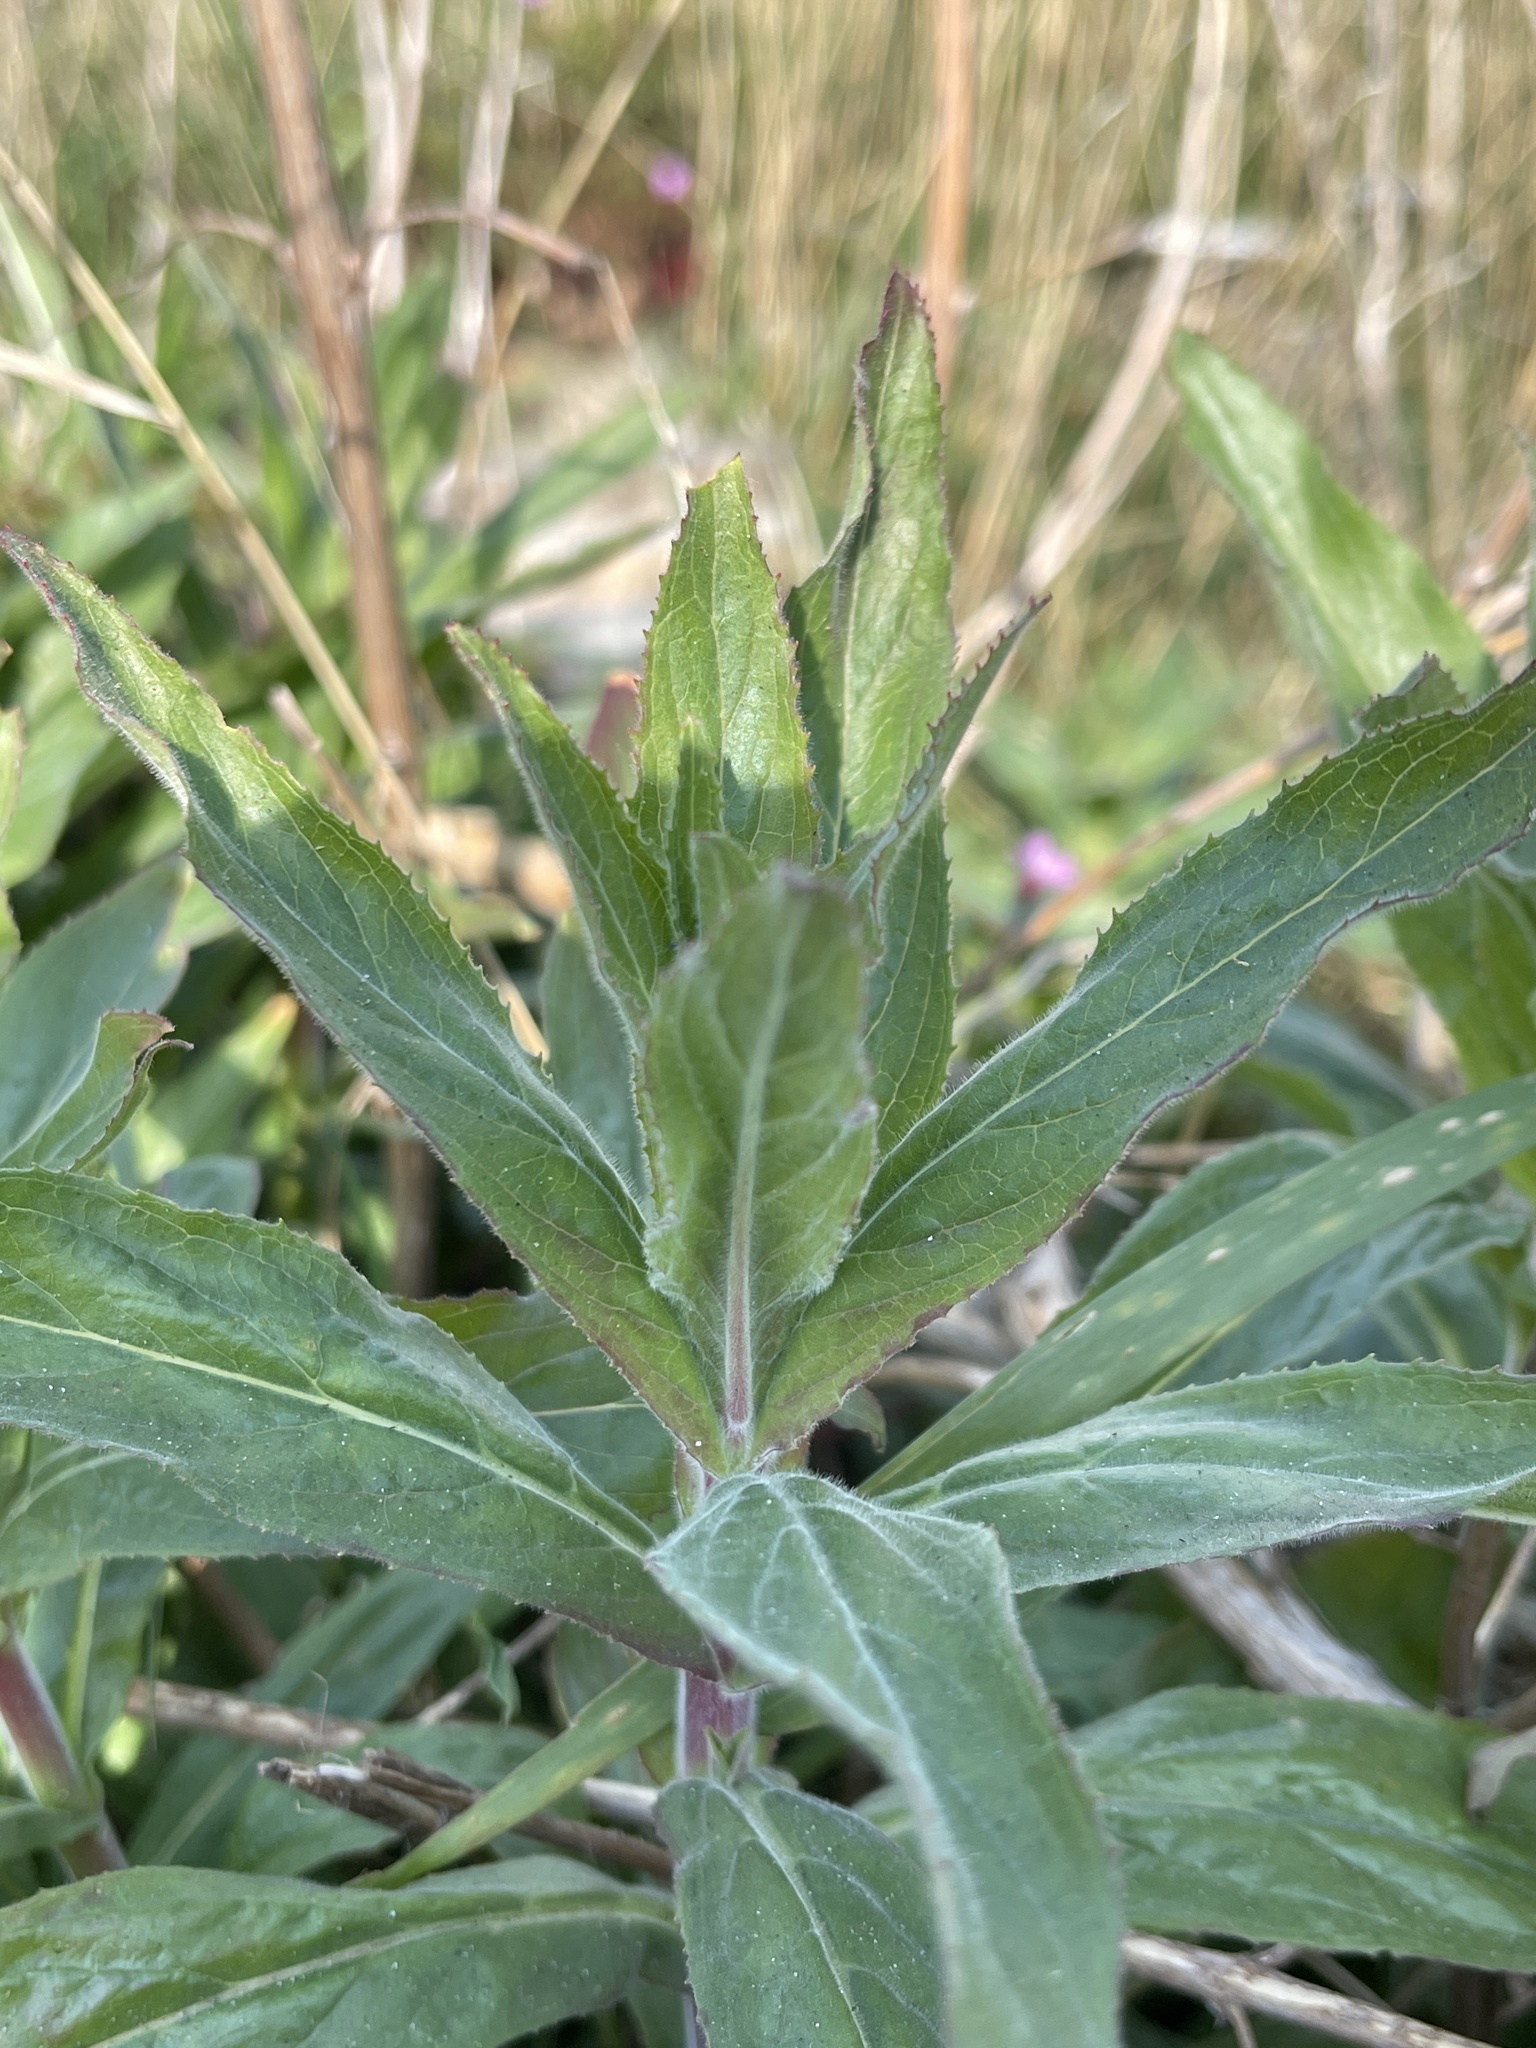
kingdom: Plantae
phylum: Tracheophyta
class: Magnoliopsida
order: Myrtales
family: Onagraceae
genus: Epilobium
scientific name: Epilobium hirsutum
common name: Great willowherb
